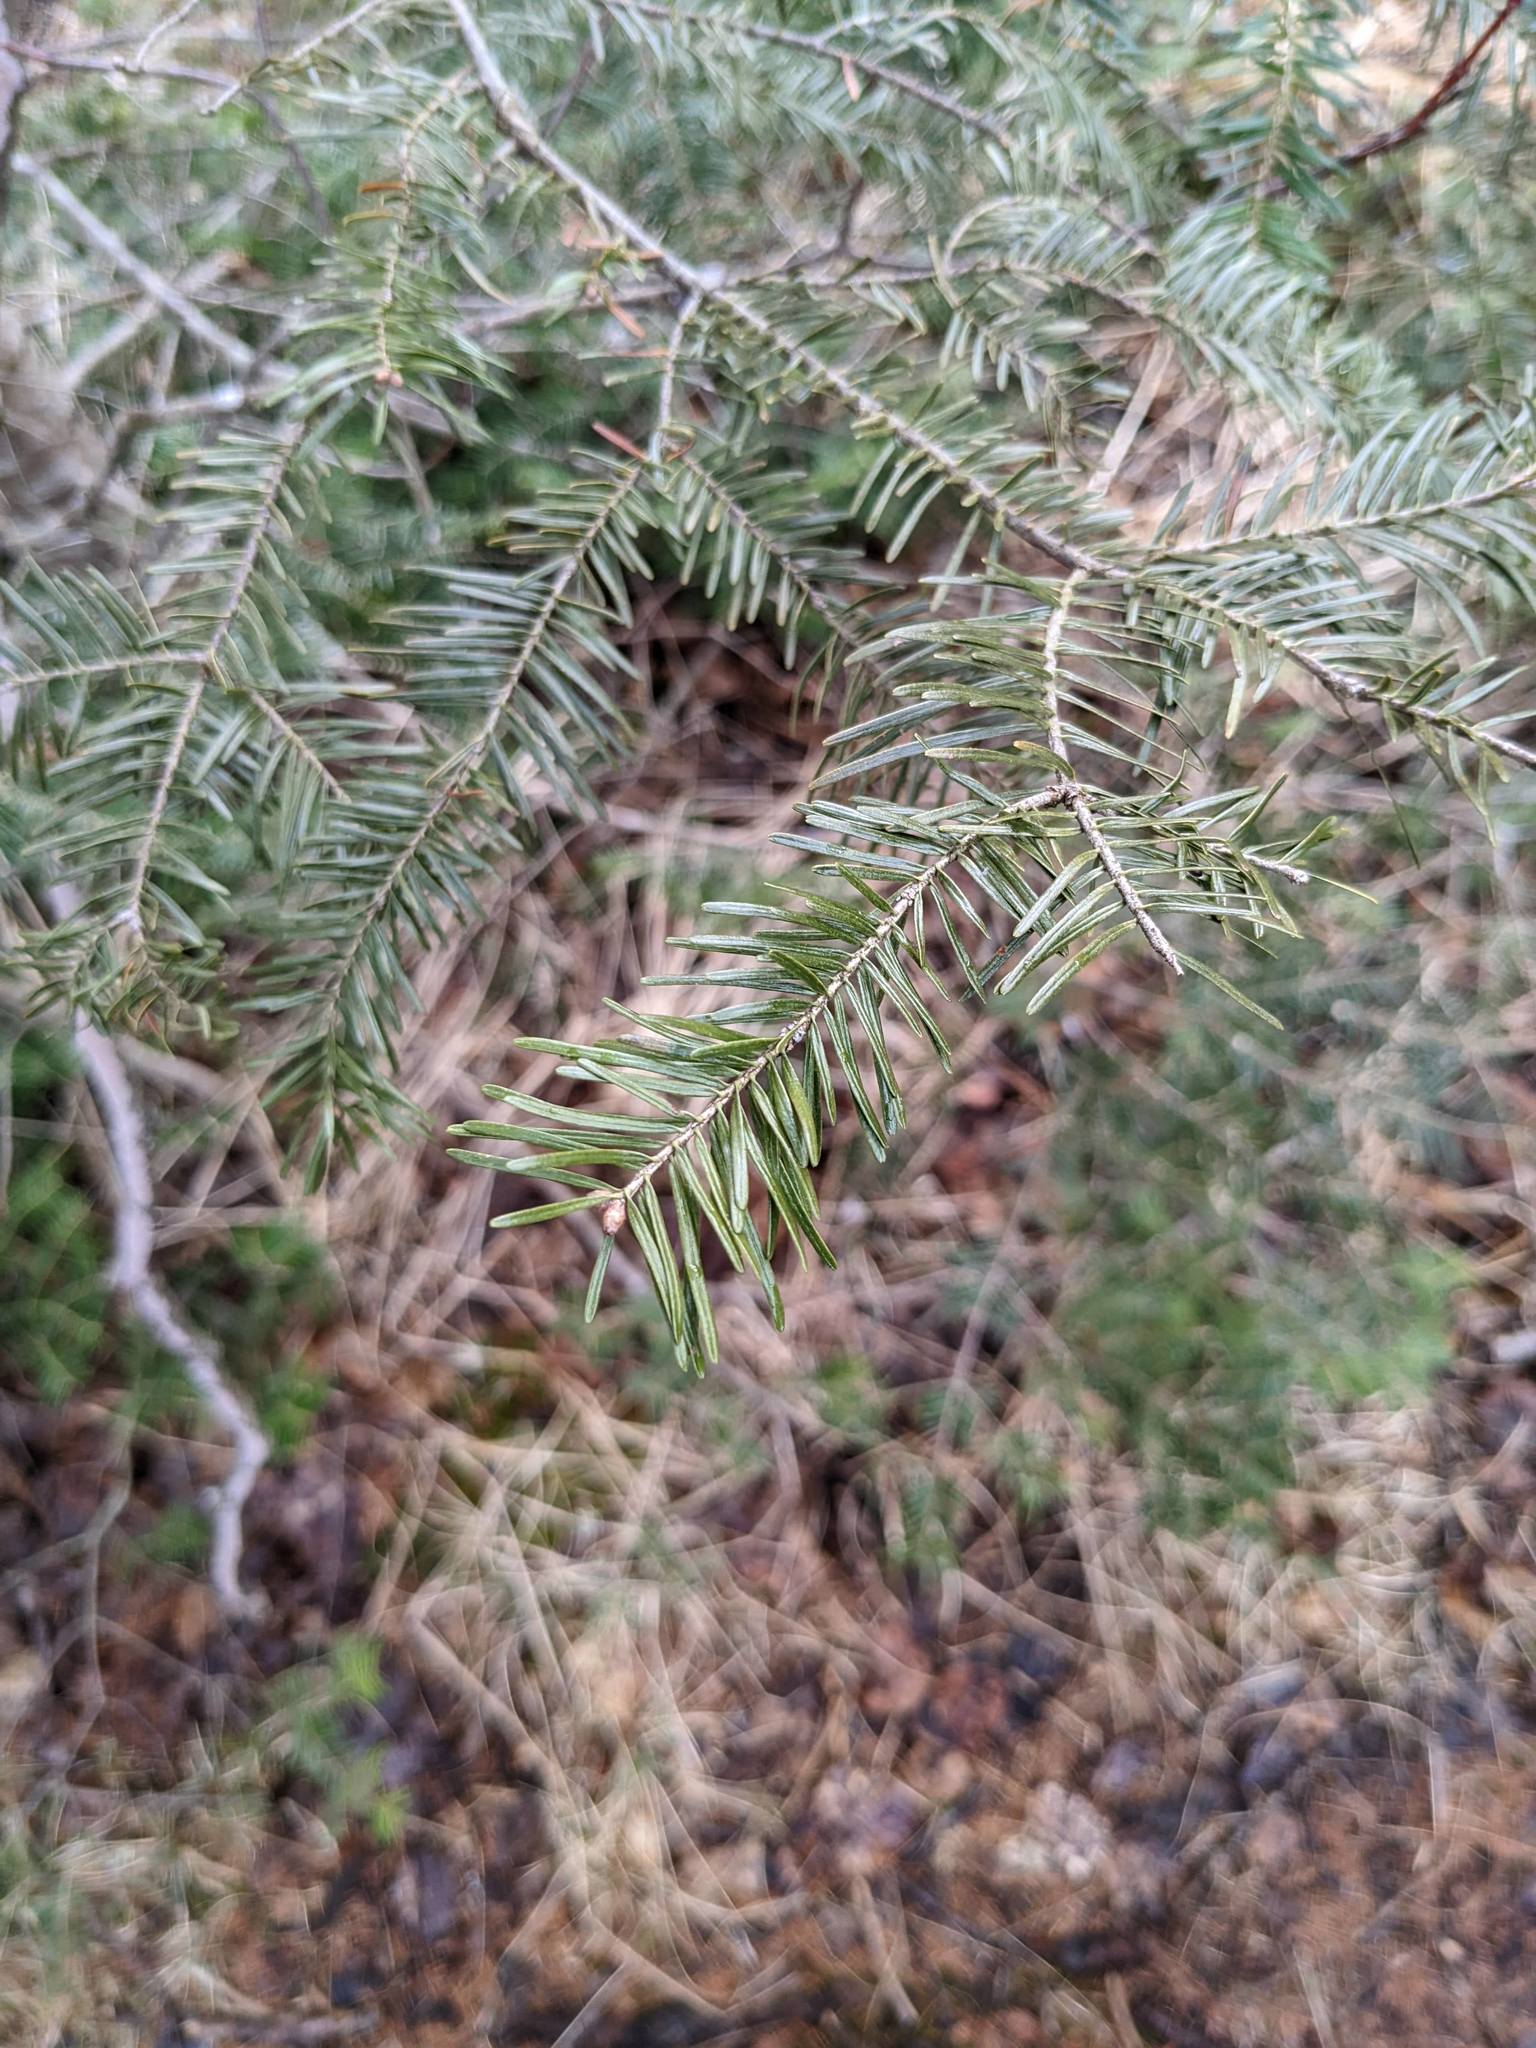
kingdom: Plantae
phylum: Tracheophyta
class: Pinopsida
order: Pinales
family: Pinaceae
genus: Abies
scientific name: Abies balsamea
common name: Balsam fir
